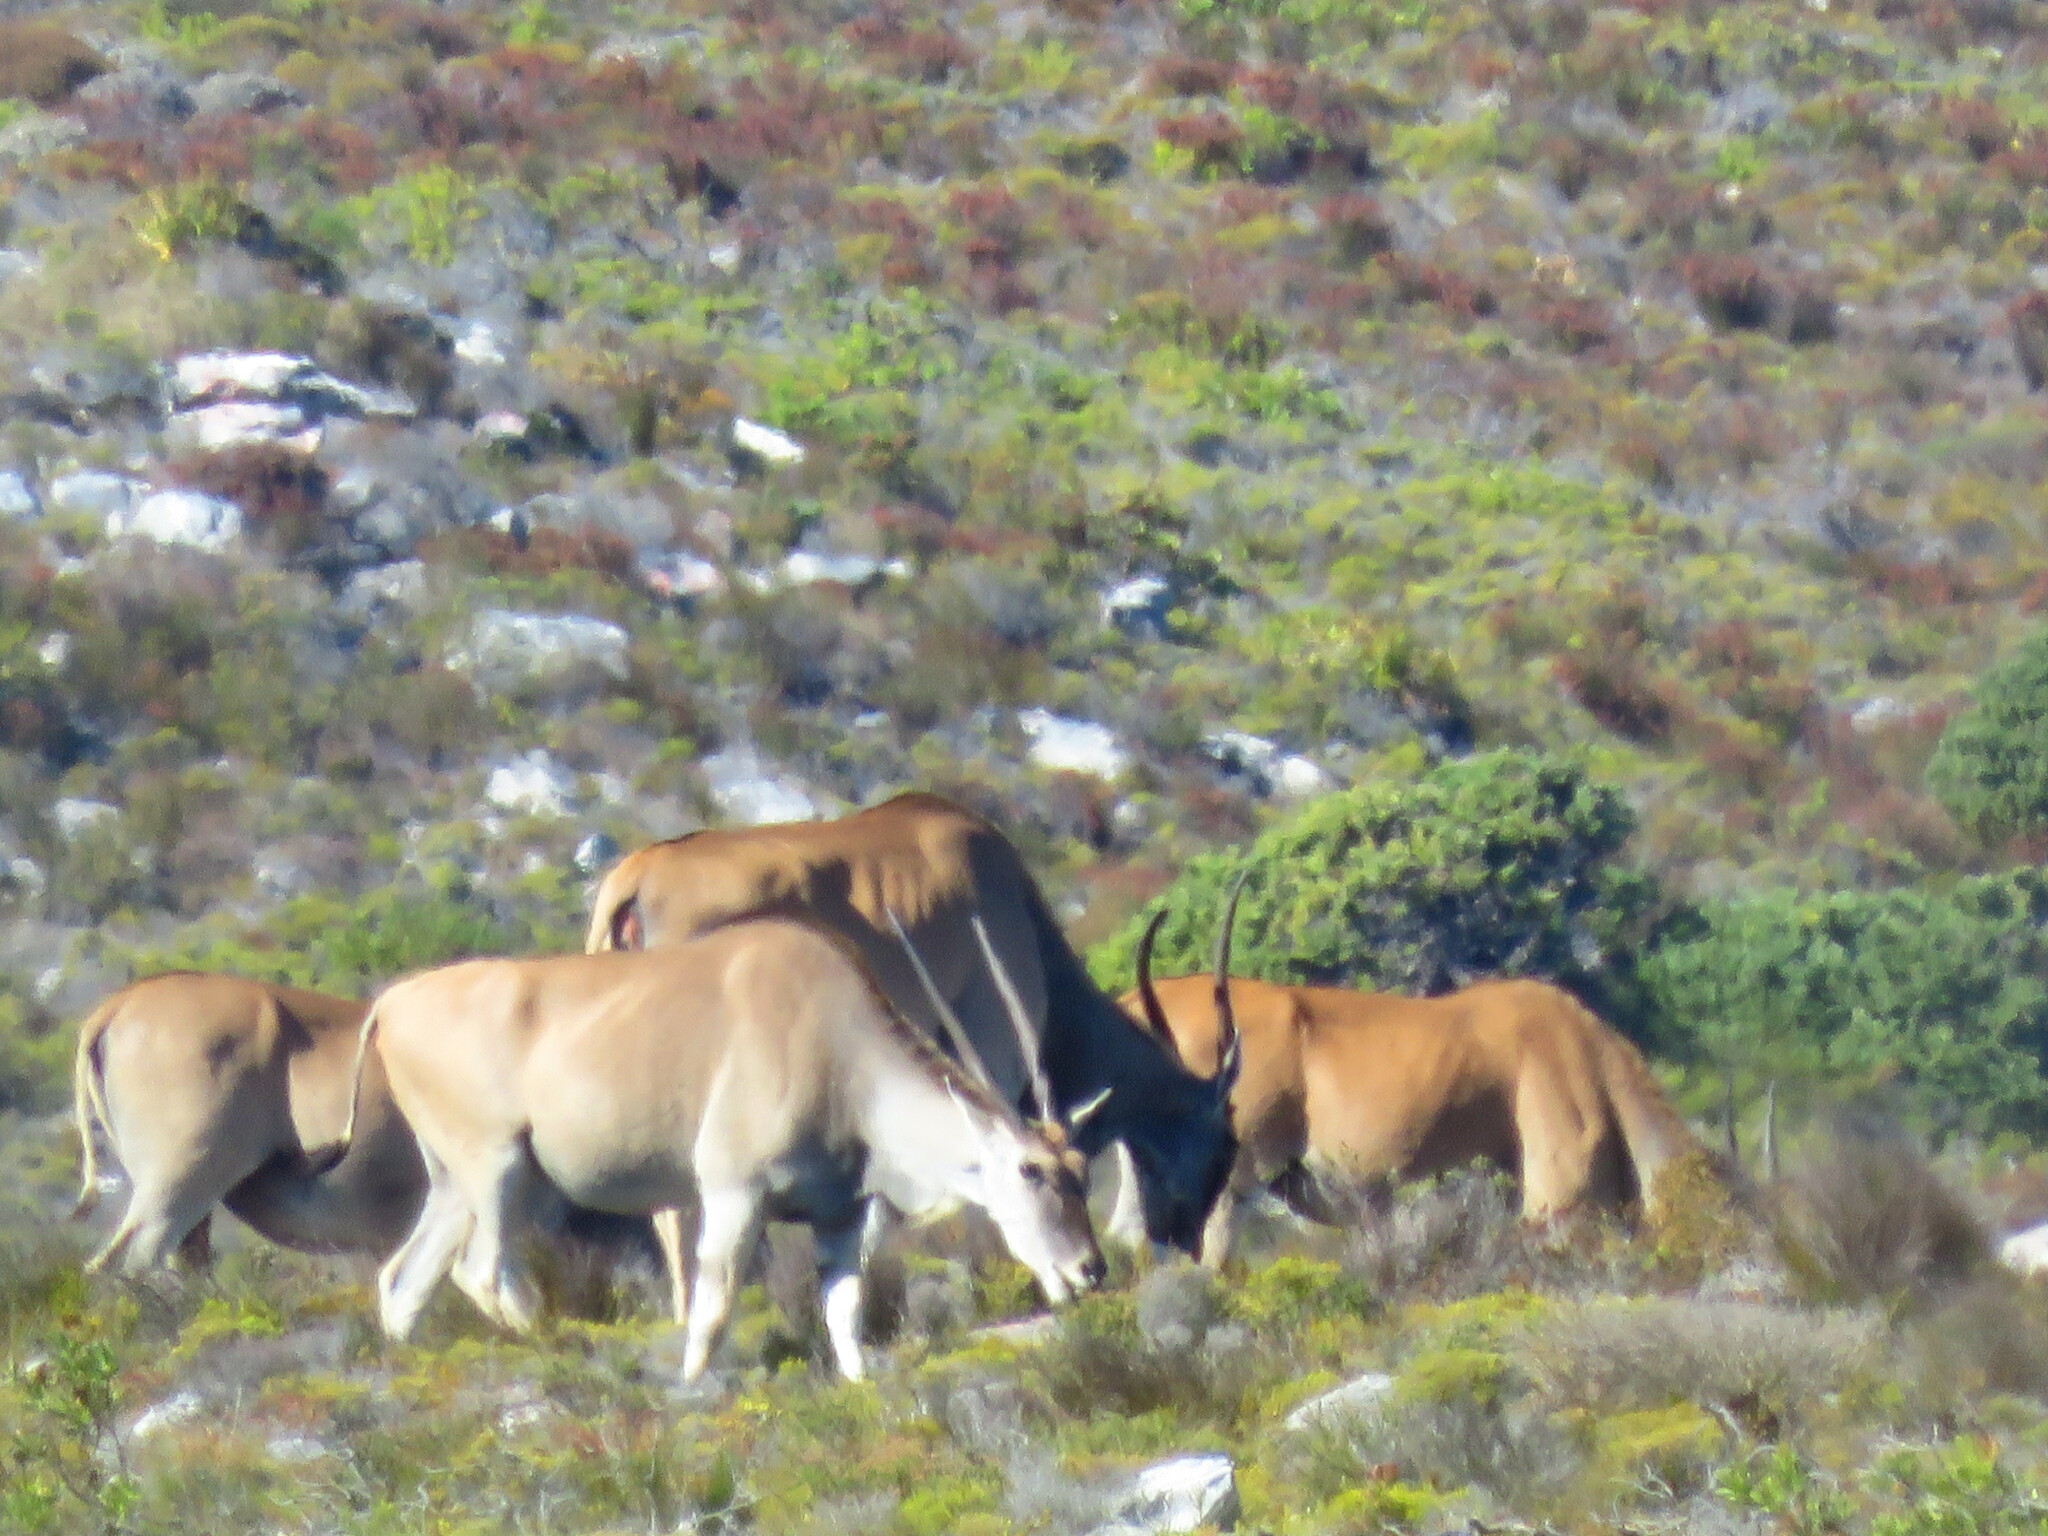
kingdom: Animalia
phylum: Chordata
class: Mammalia
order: Artiodactyla
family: Bovidae
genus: Taurotragus
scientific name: Taurotragus oryx
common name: Common eland
